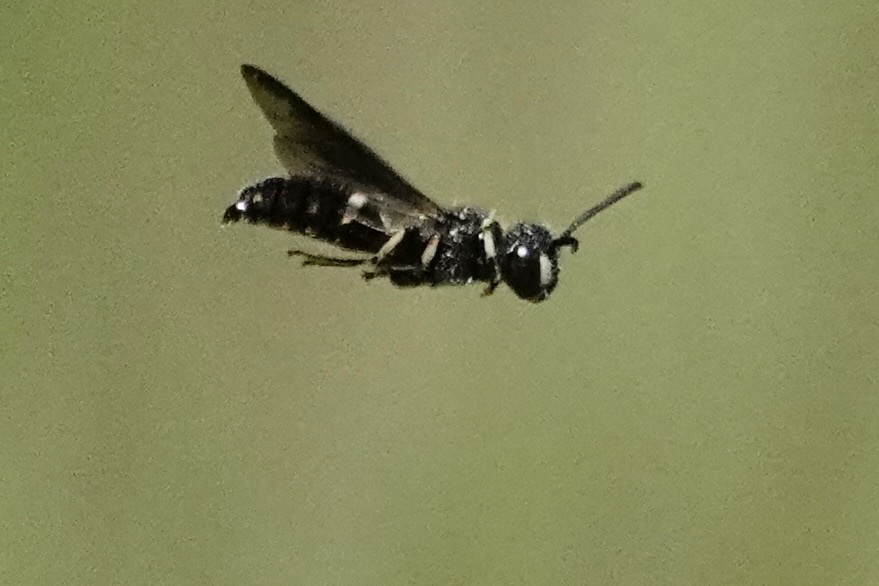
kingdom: Animalia
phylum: Arthropoda
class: Insecta
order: Hymenoptera
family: Crabronidae
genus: Cerceris
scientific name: Cerceris fumipennis
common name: Smokey-winged beetle bandit wasp
